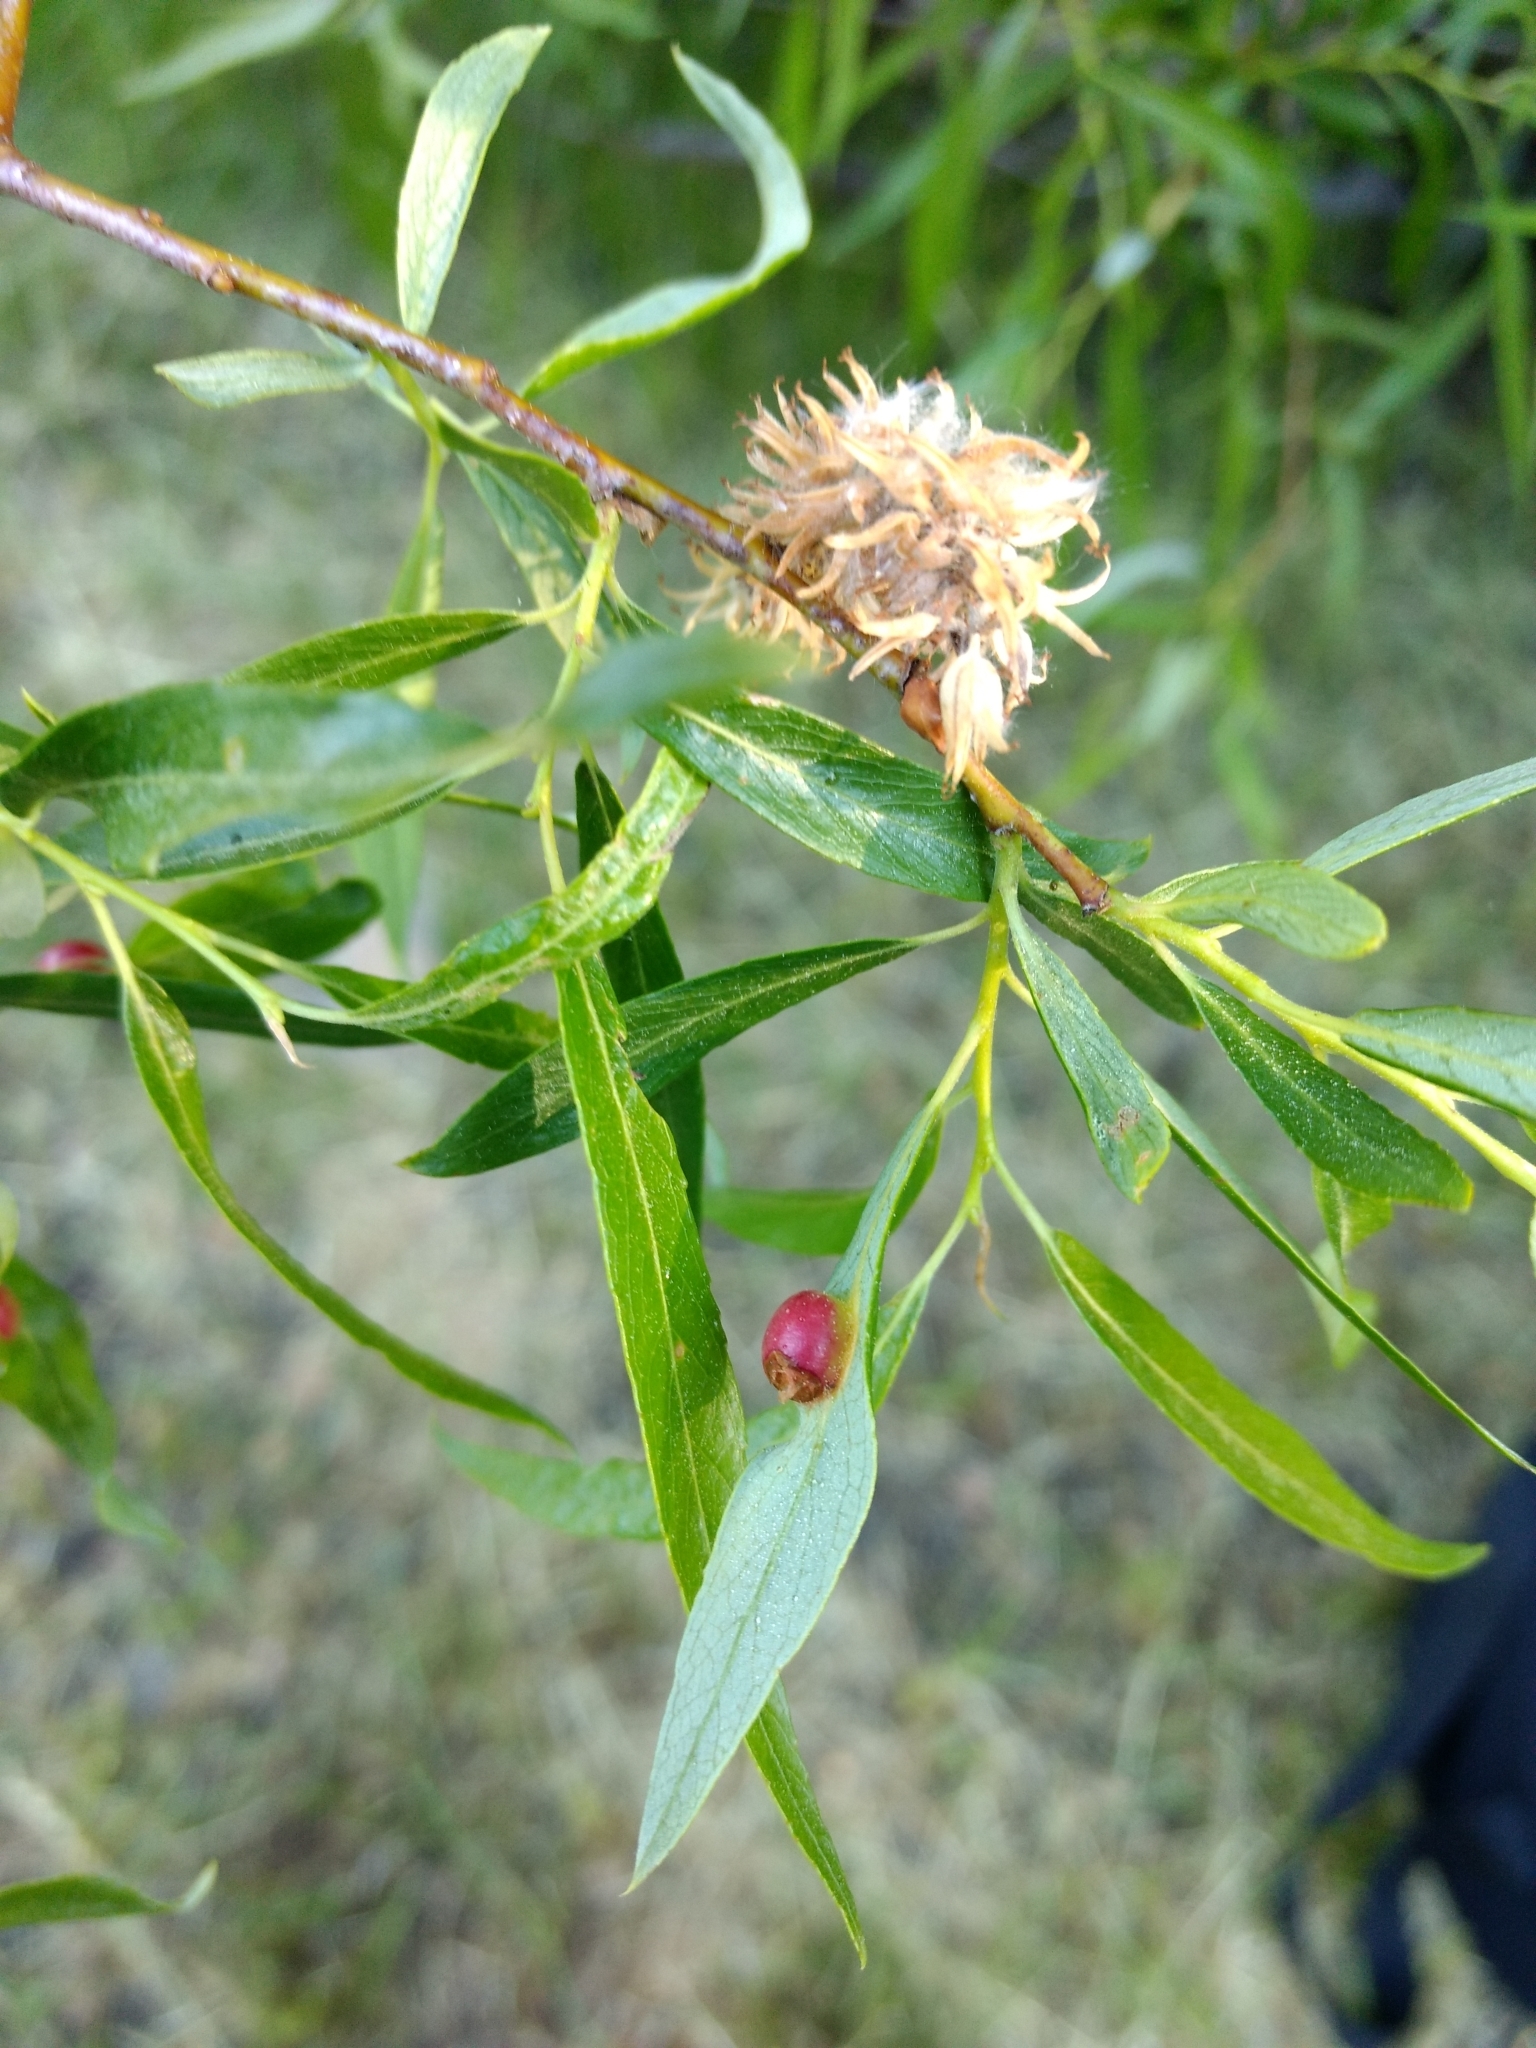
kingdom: Animalia
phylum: Arthropoda
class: Insecta
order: Hymenoptera
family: Tenthredinidae
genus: Euura
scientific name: Euura
